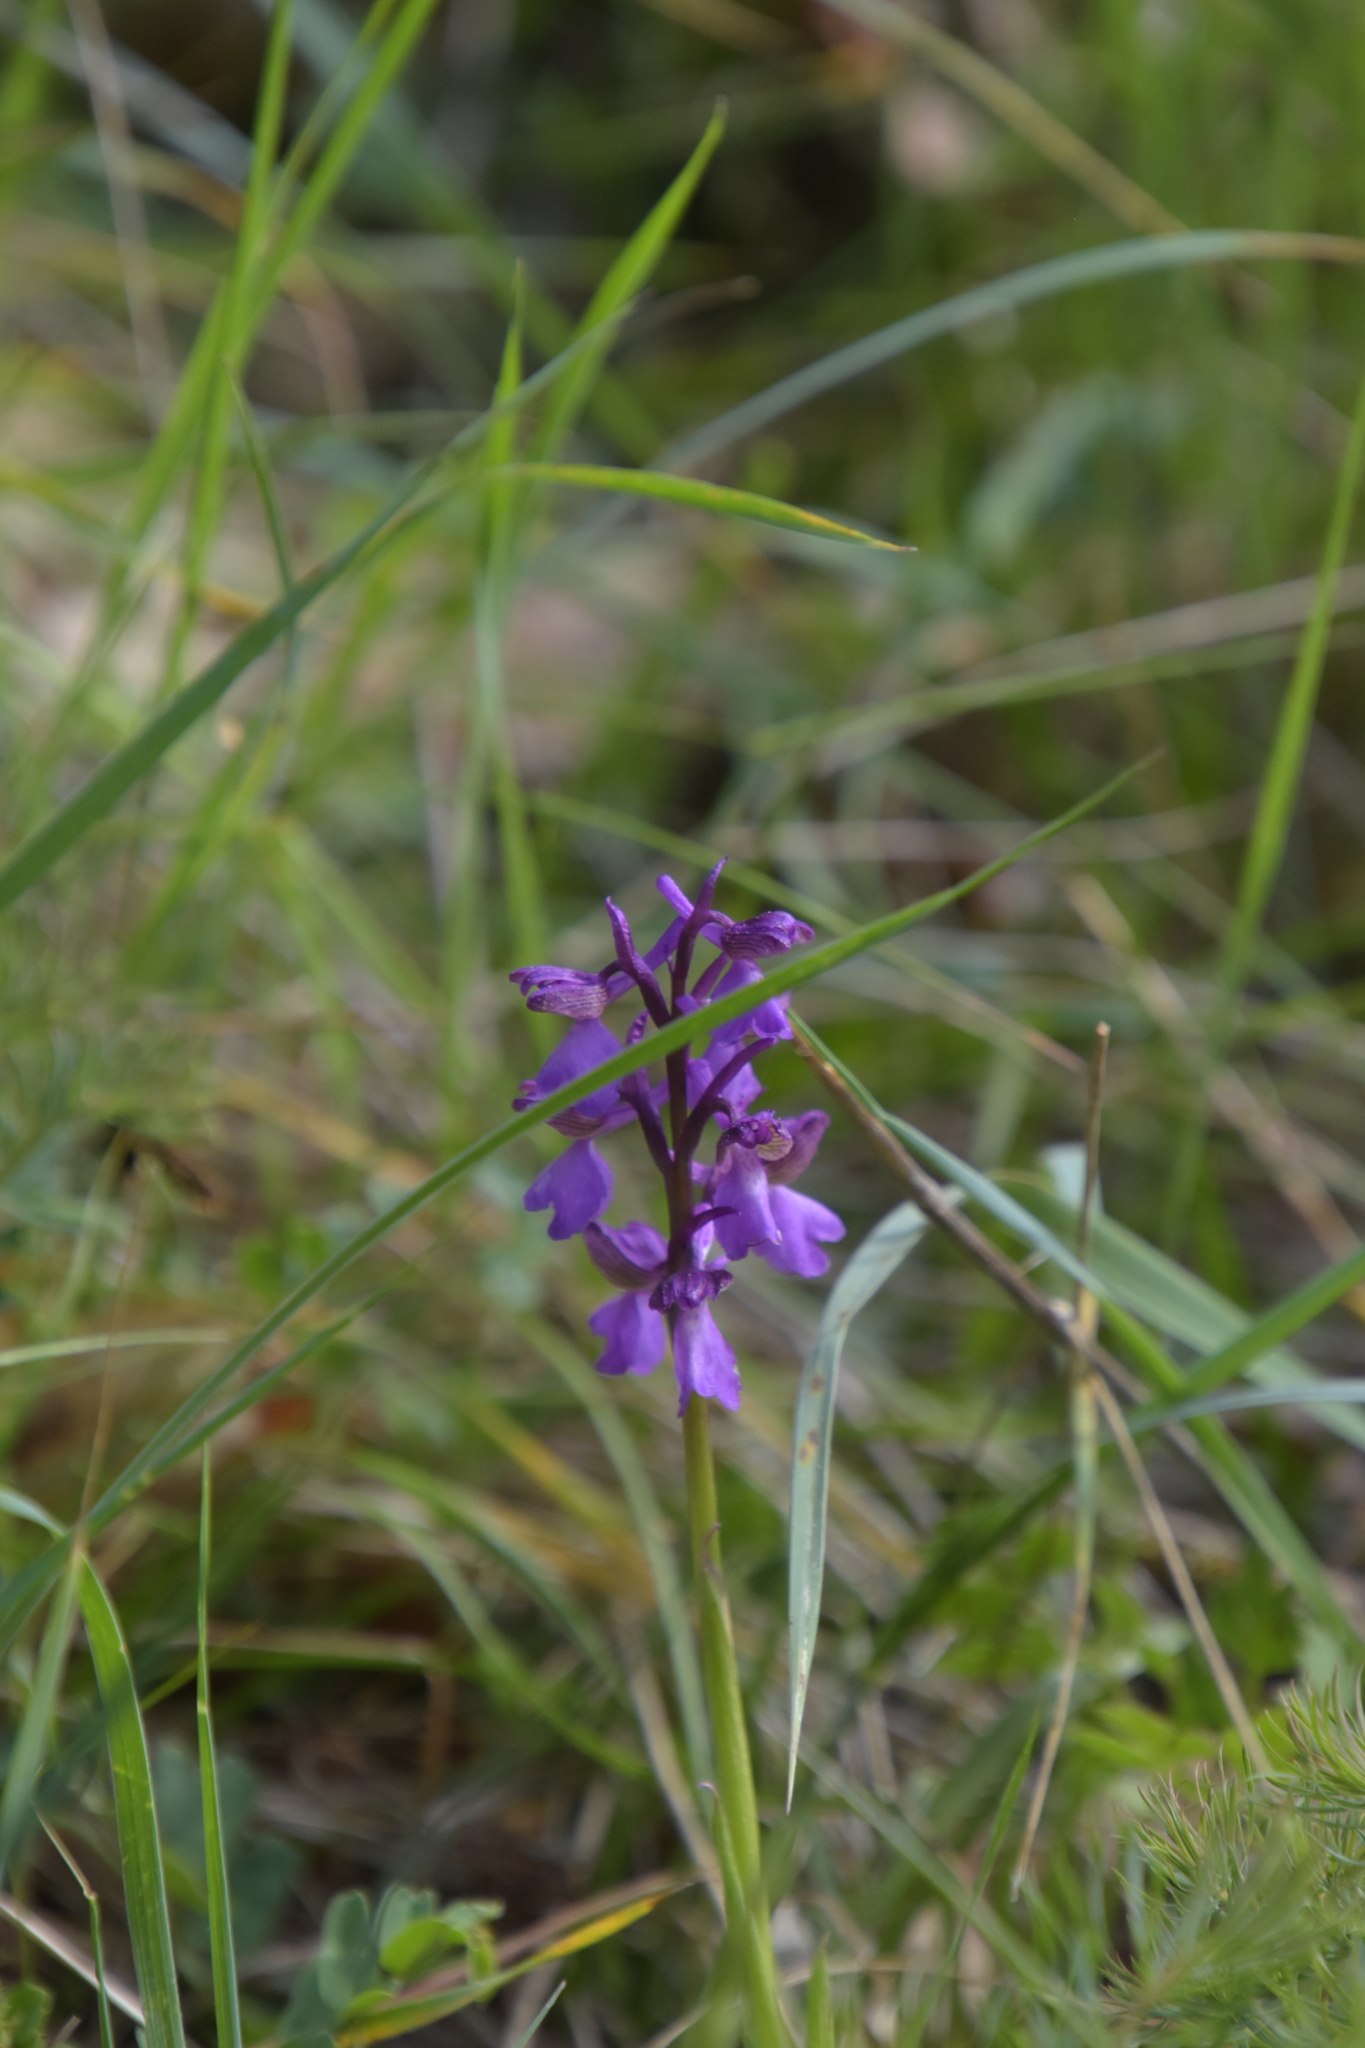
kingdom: Plantae
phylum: Tracheophyta
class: Liliopsida
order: Asparagales
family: Orchidaceae
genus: Anacamptis
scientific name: Anacamptis morio
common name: Green-winged orchid
